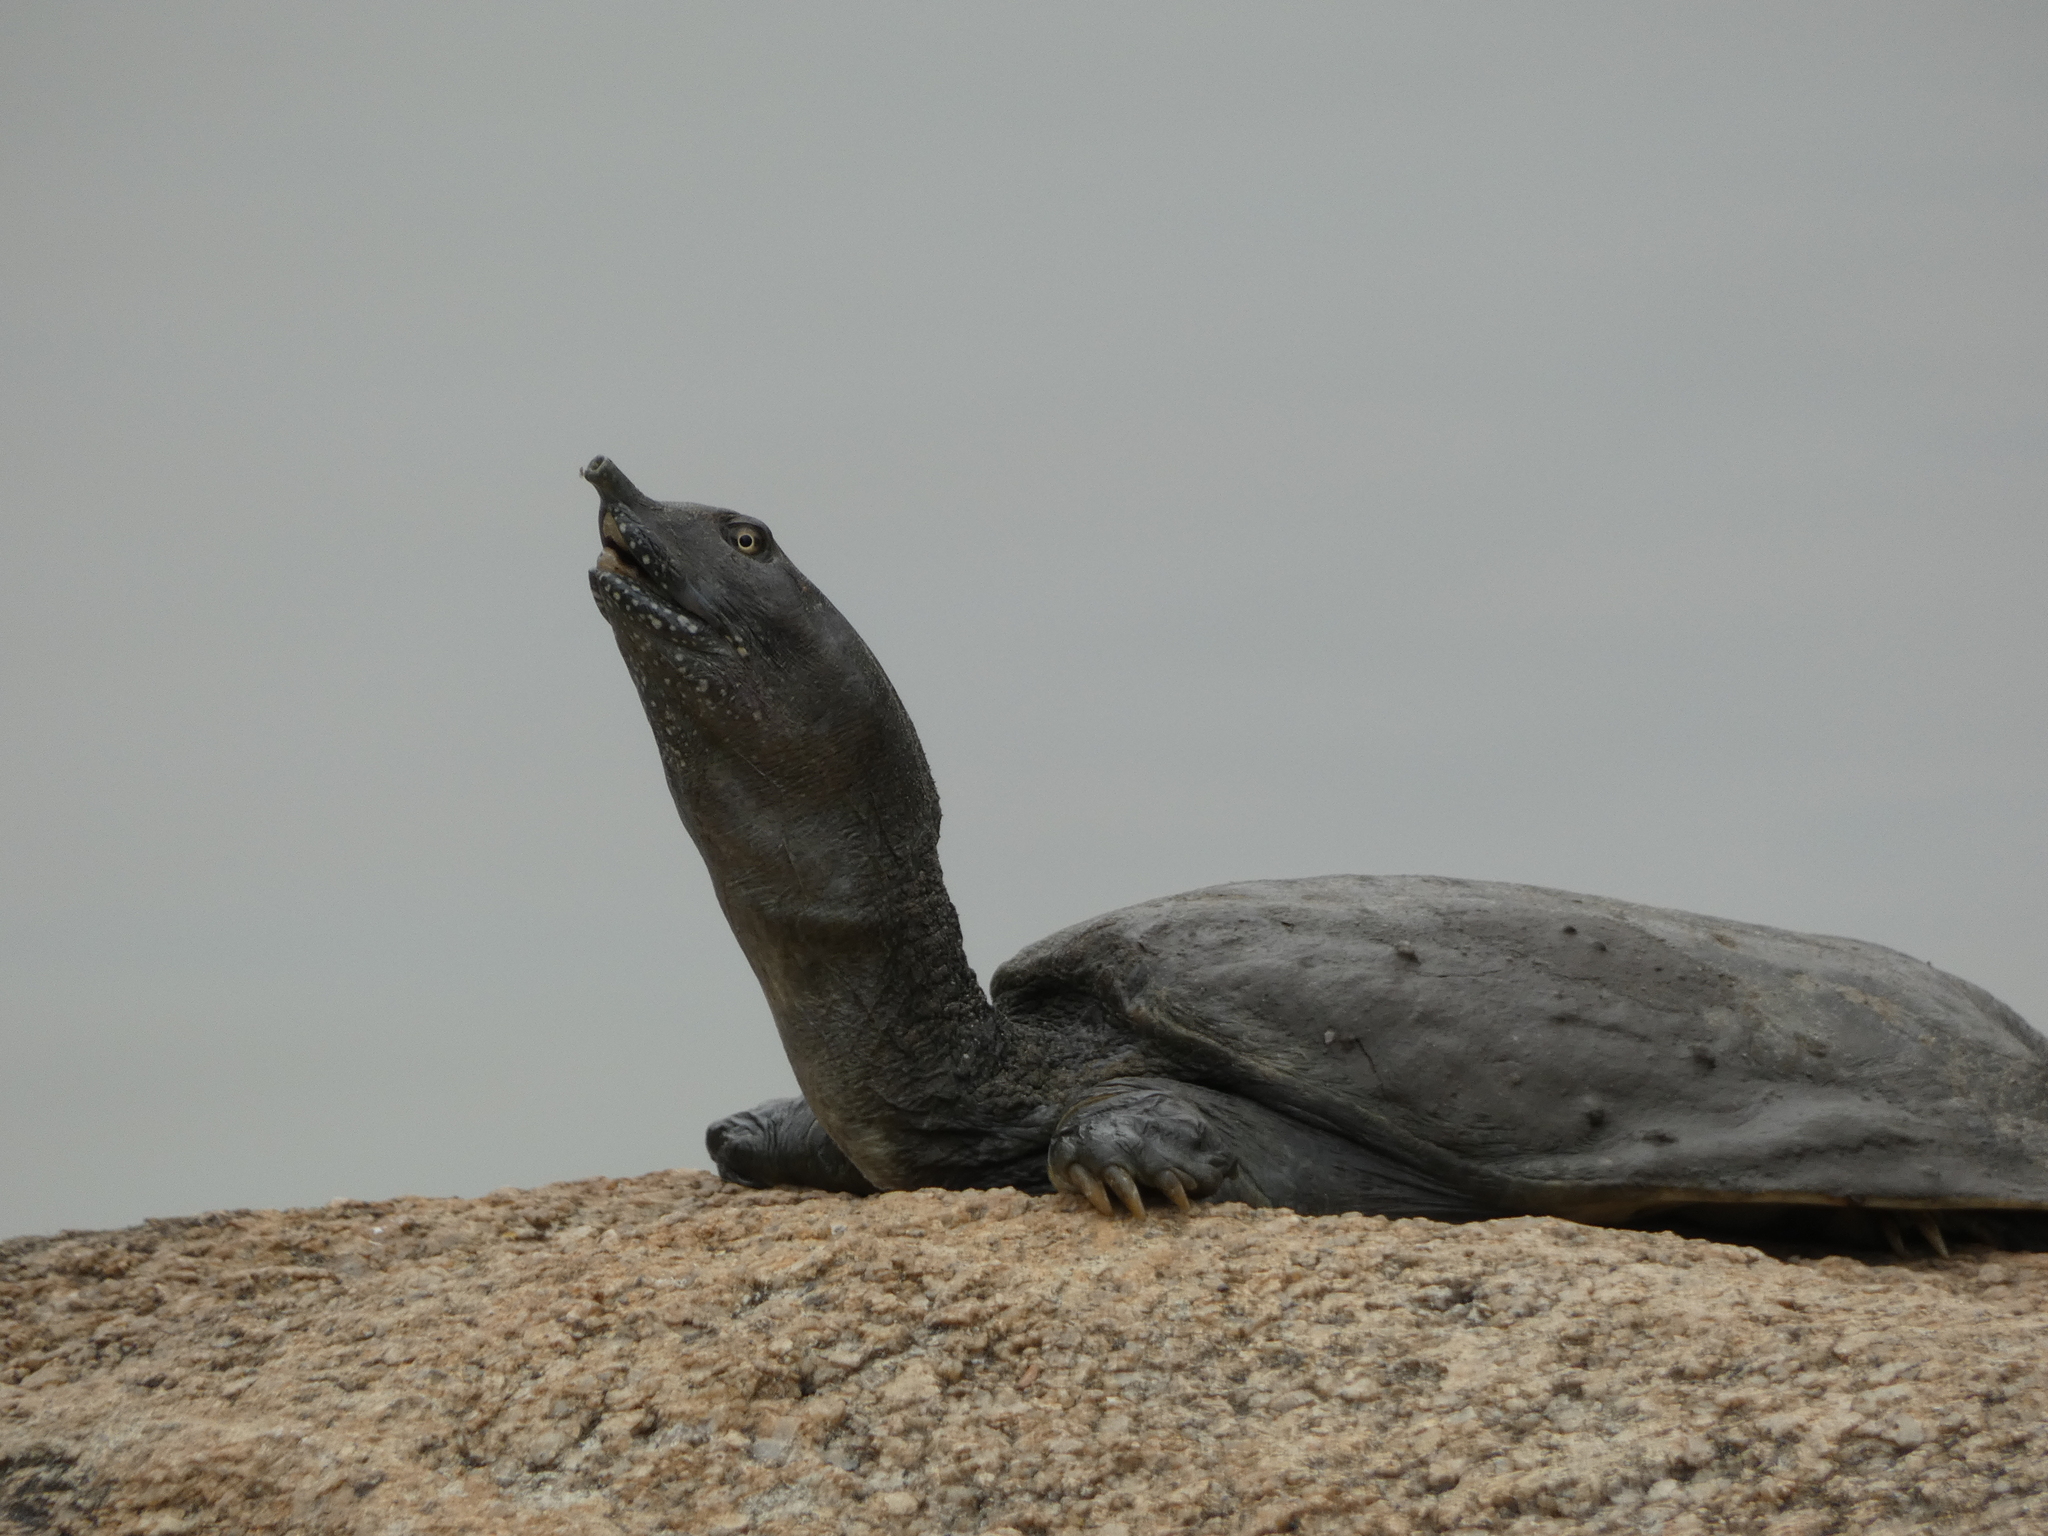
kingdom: Animalia
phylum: Chordata
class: Testudines
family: Trionychidae
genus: Pelodiscus
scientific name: Pelodiscus sinensis
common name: Chinese softshell turtle
